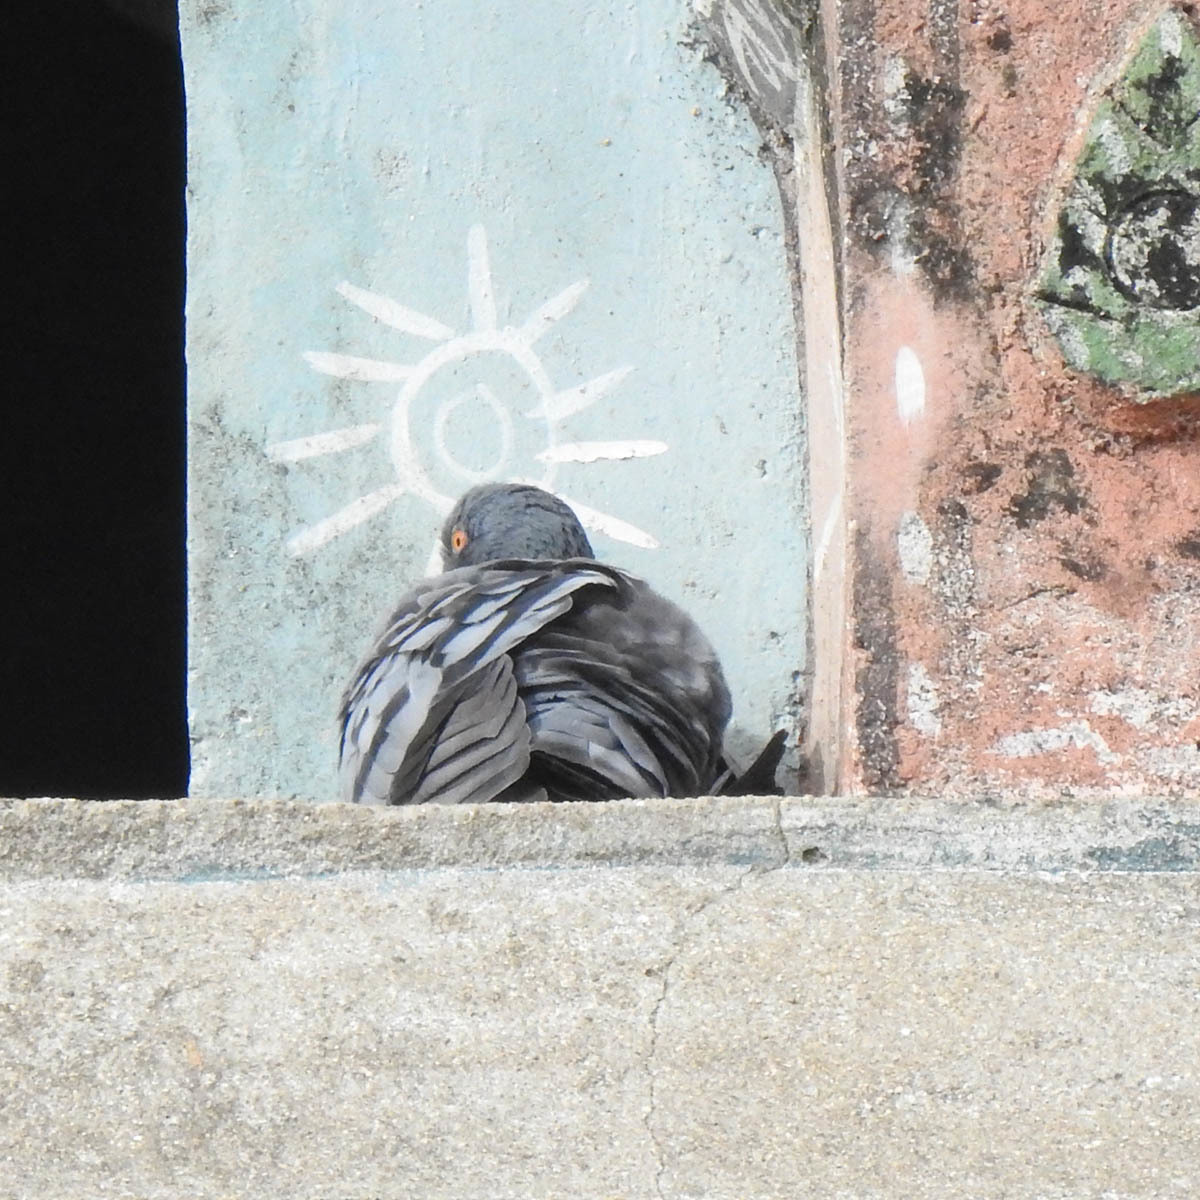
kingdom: Animalia
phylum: Chordata
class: Aves
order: Columbiformes
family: Columbidae
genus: Columba
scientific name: Columba livia
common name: Rock pigeon
